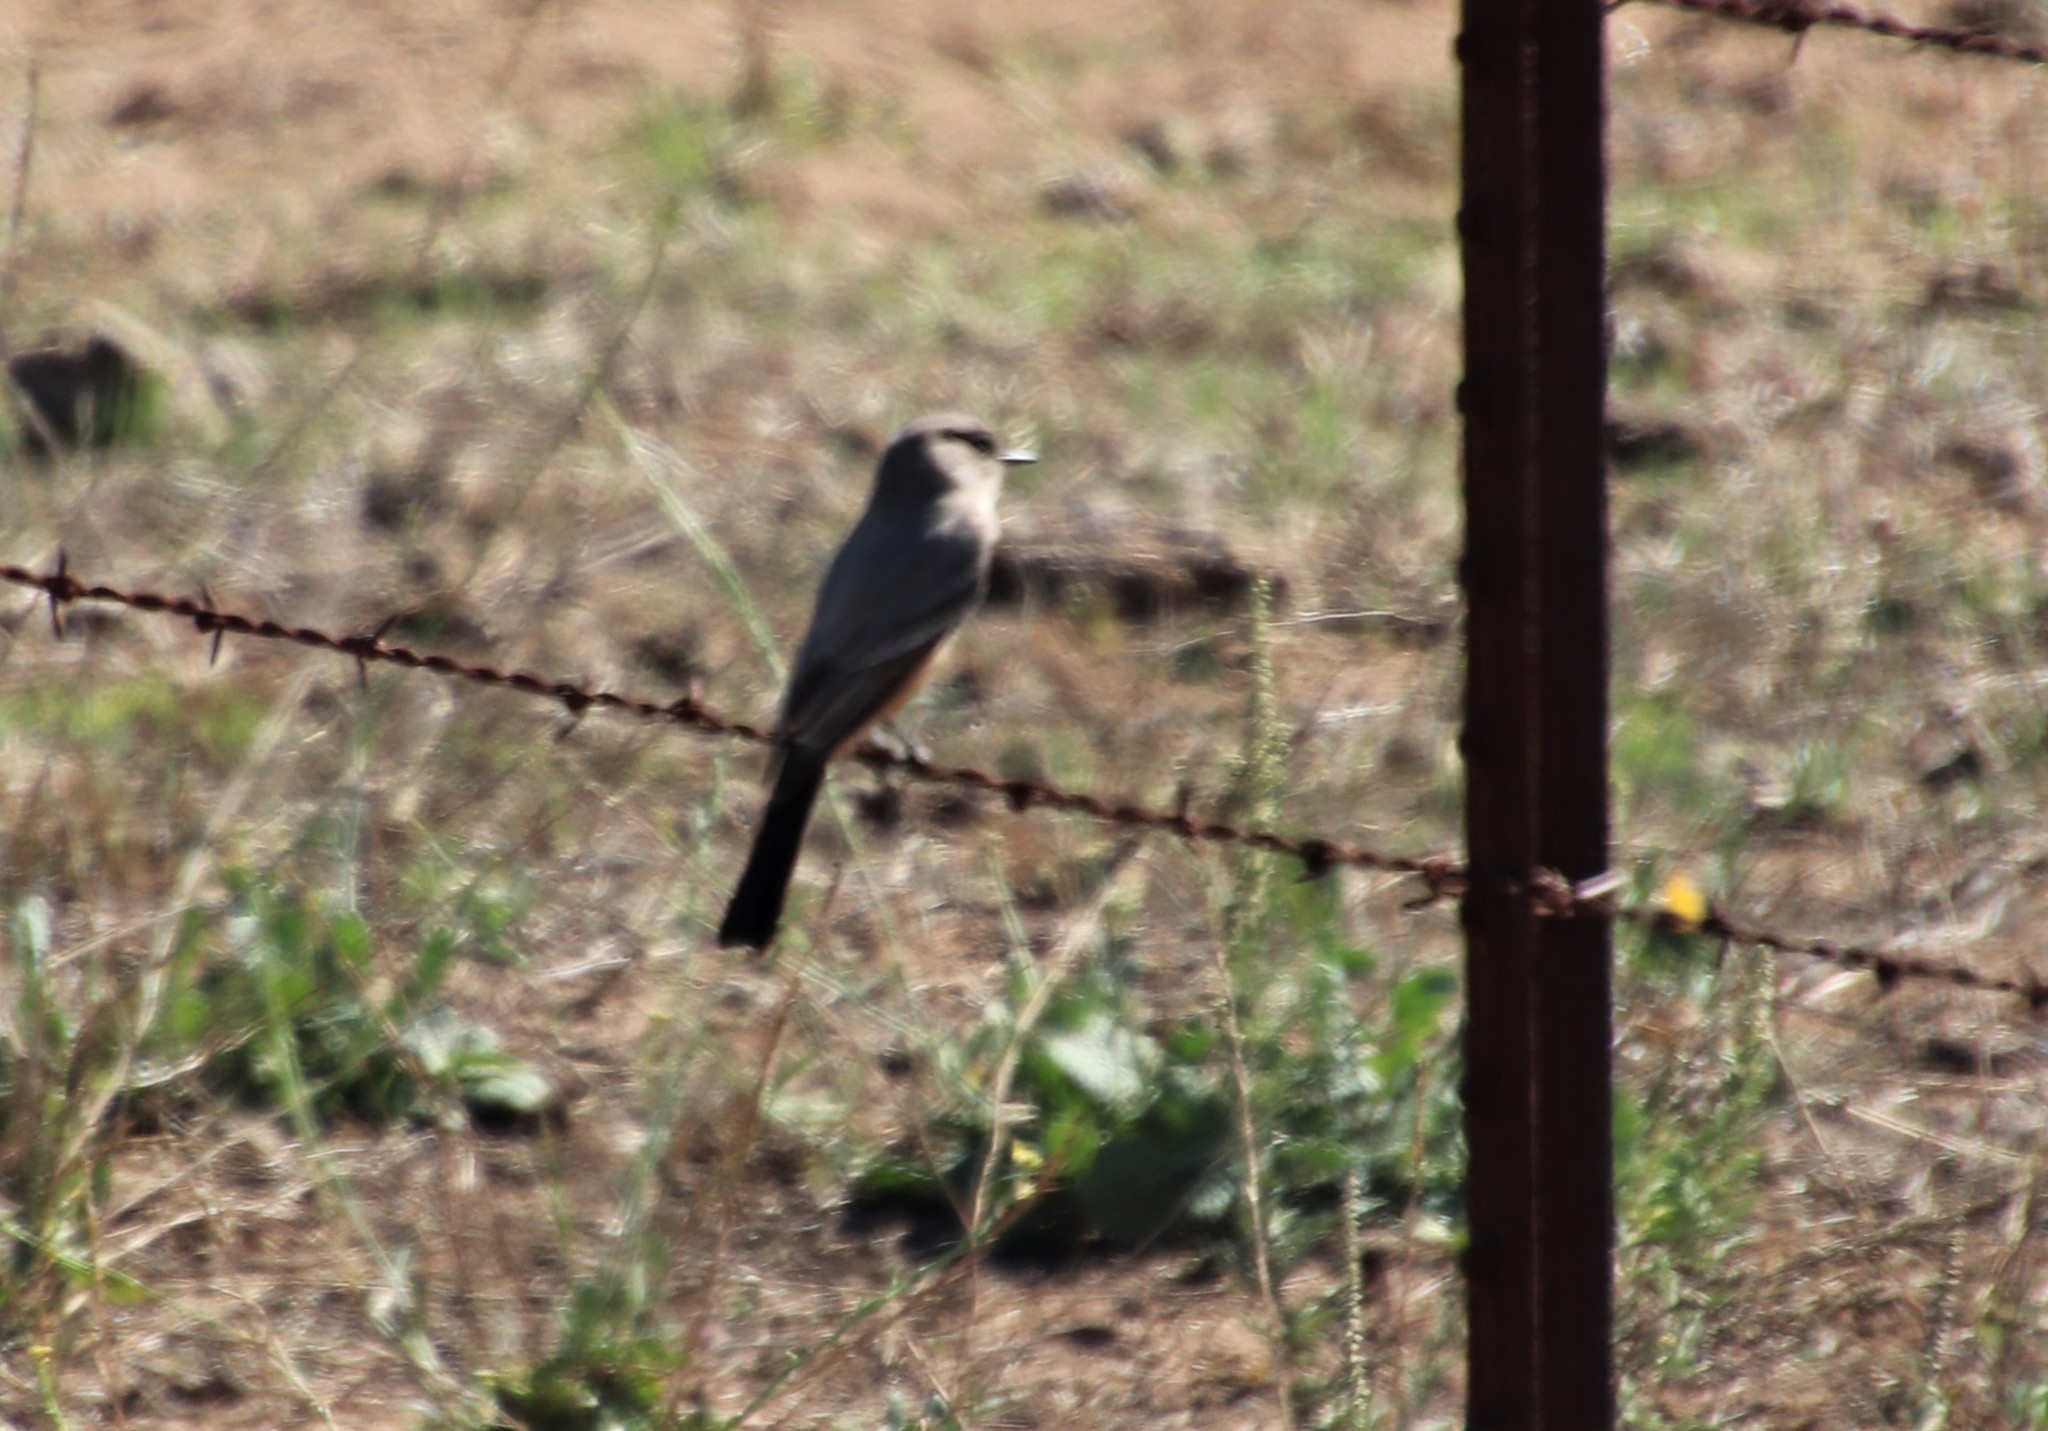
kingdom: Animalia
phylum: Chordata
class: Aves
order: Passeriformes
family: Tyrannidae
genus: Sayornis
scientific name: Sayornis saya
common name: Say's phoebe
